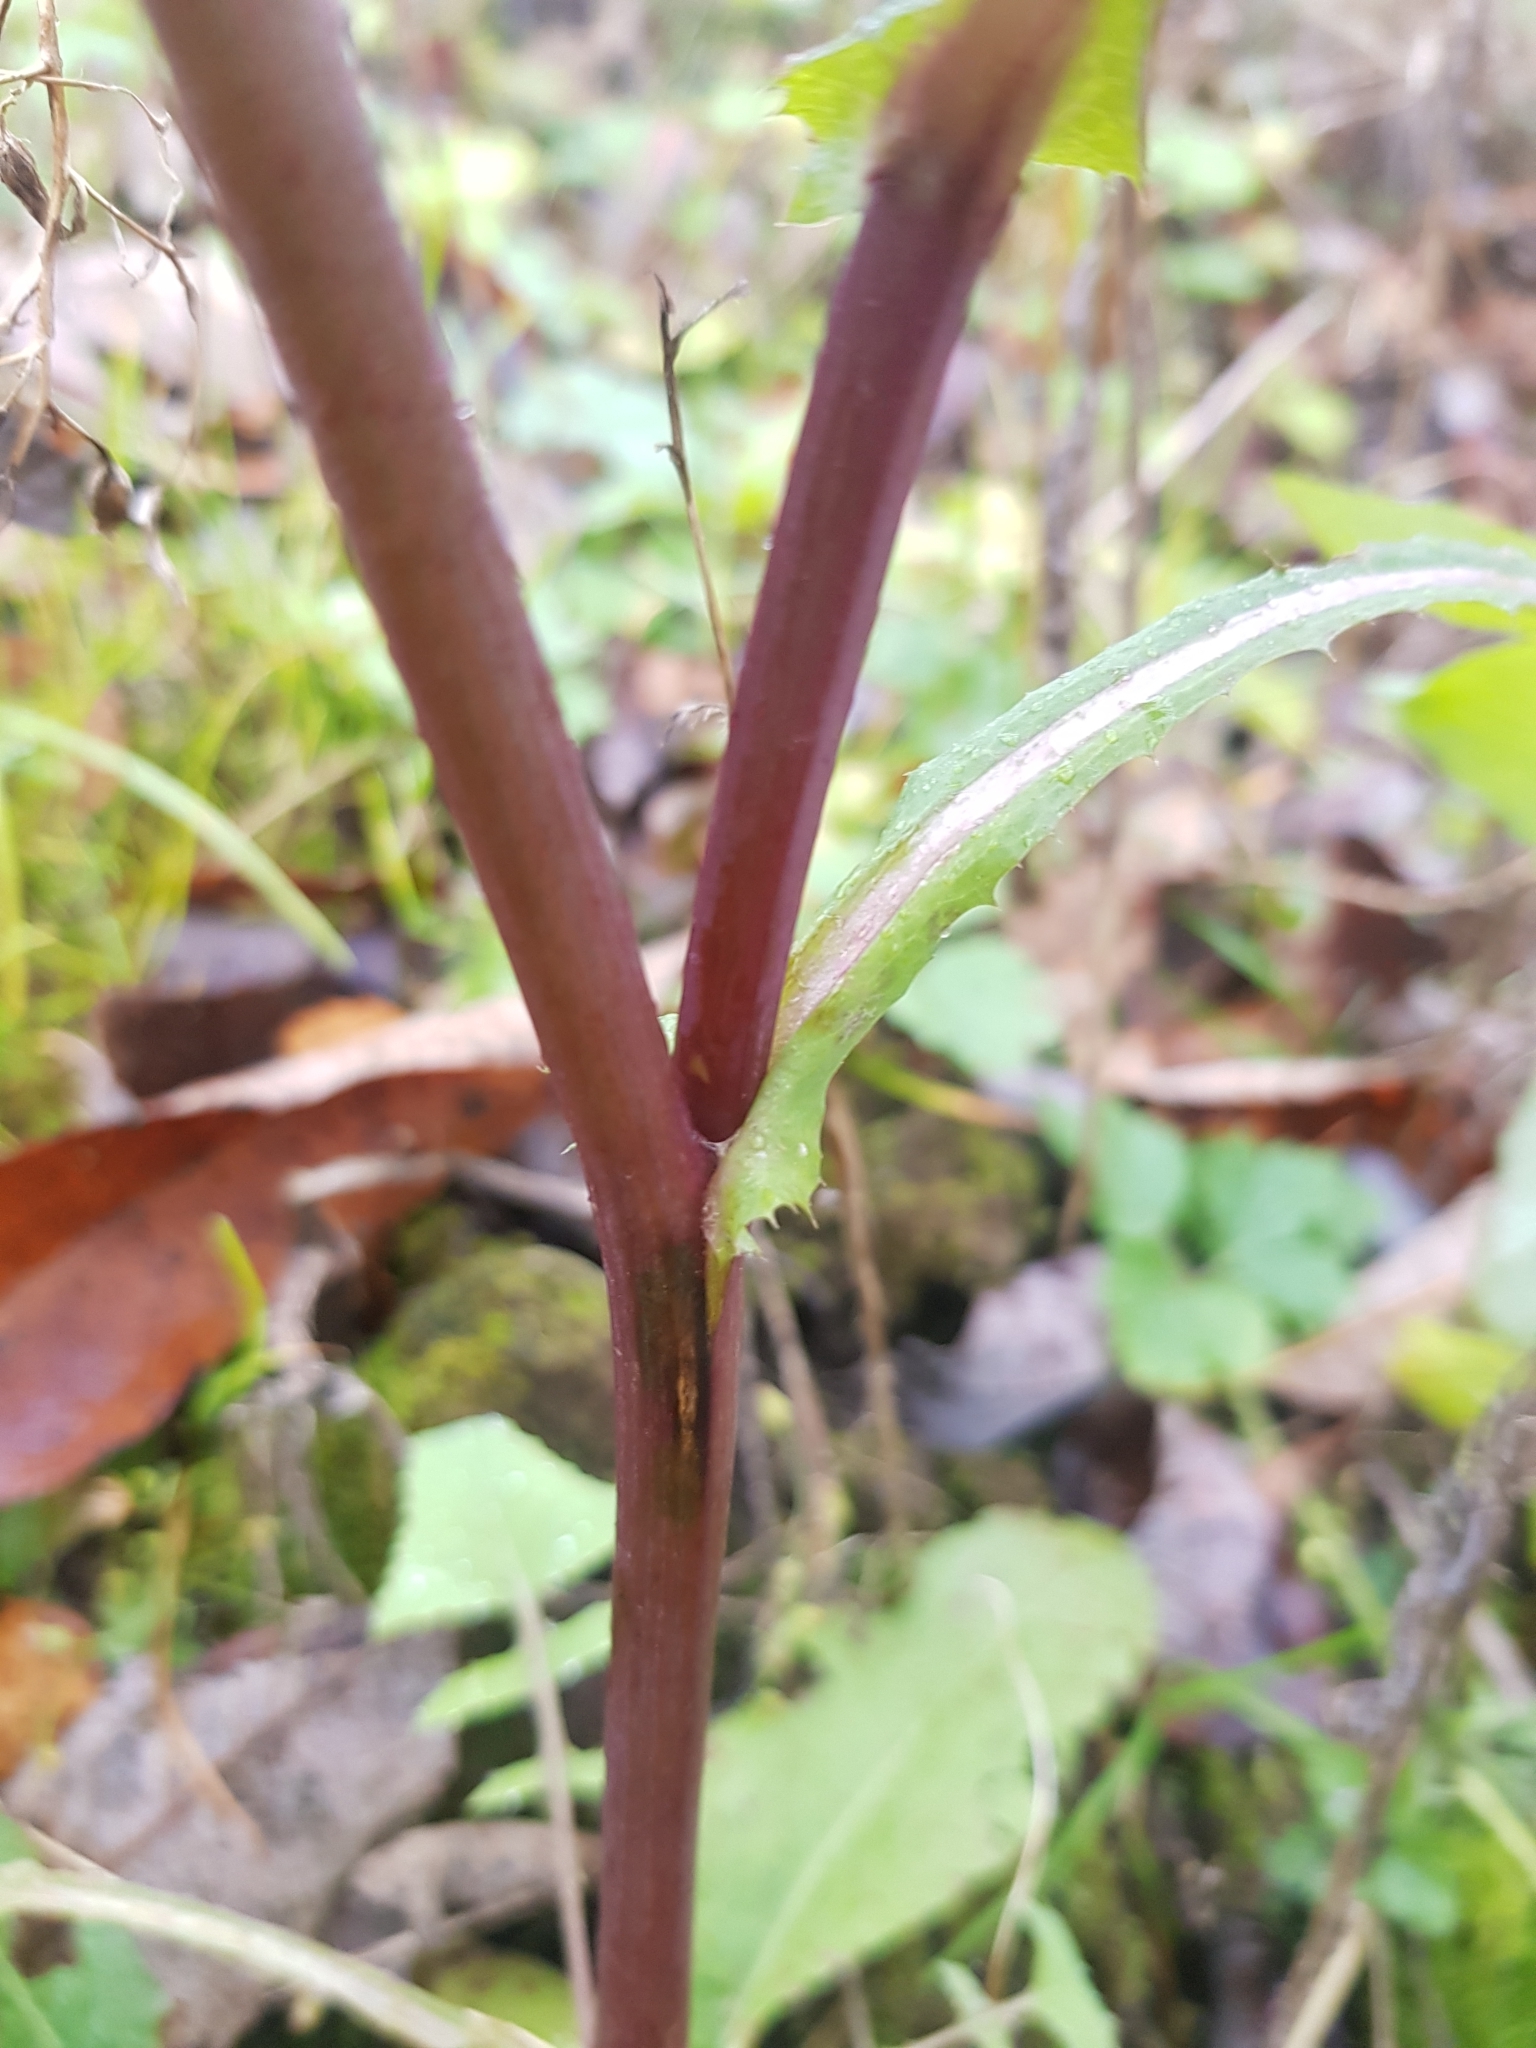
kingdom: Plantae
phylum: Tracheophyta
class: Magnoliopsida
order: Asterales
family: Asteraceae
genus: Sonchus
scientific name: Sonchus oleraceus
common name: Common sowthistle
